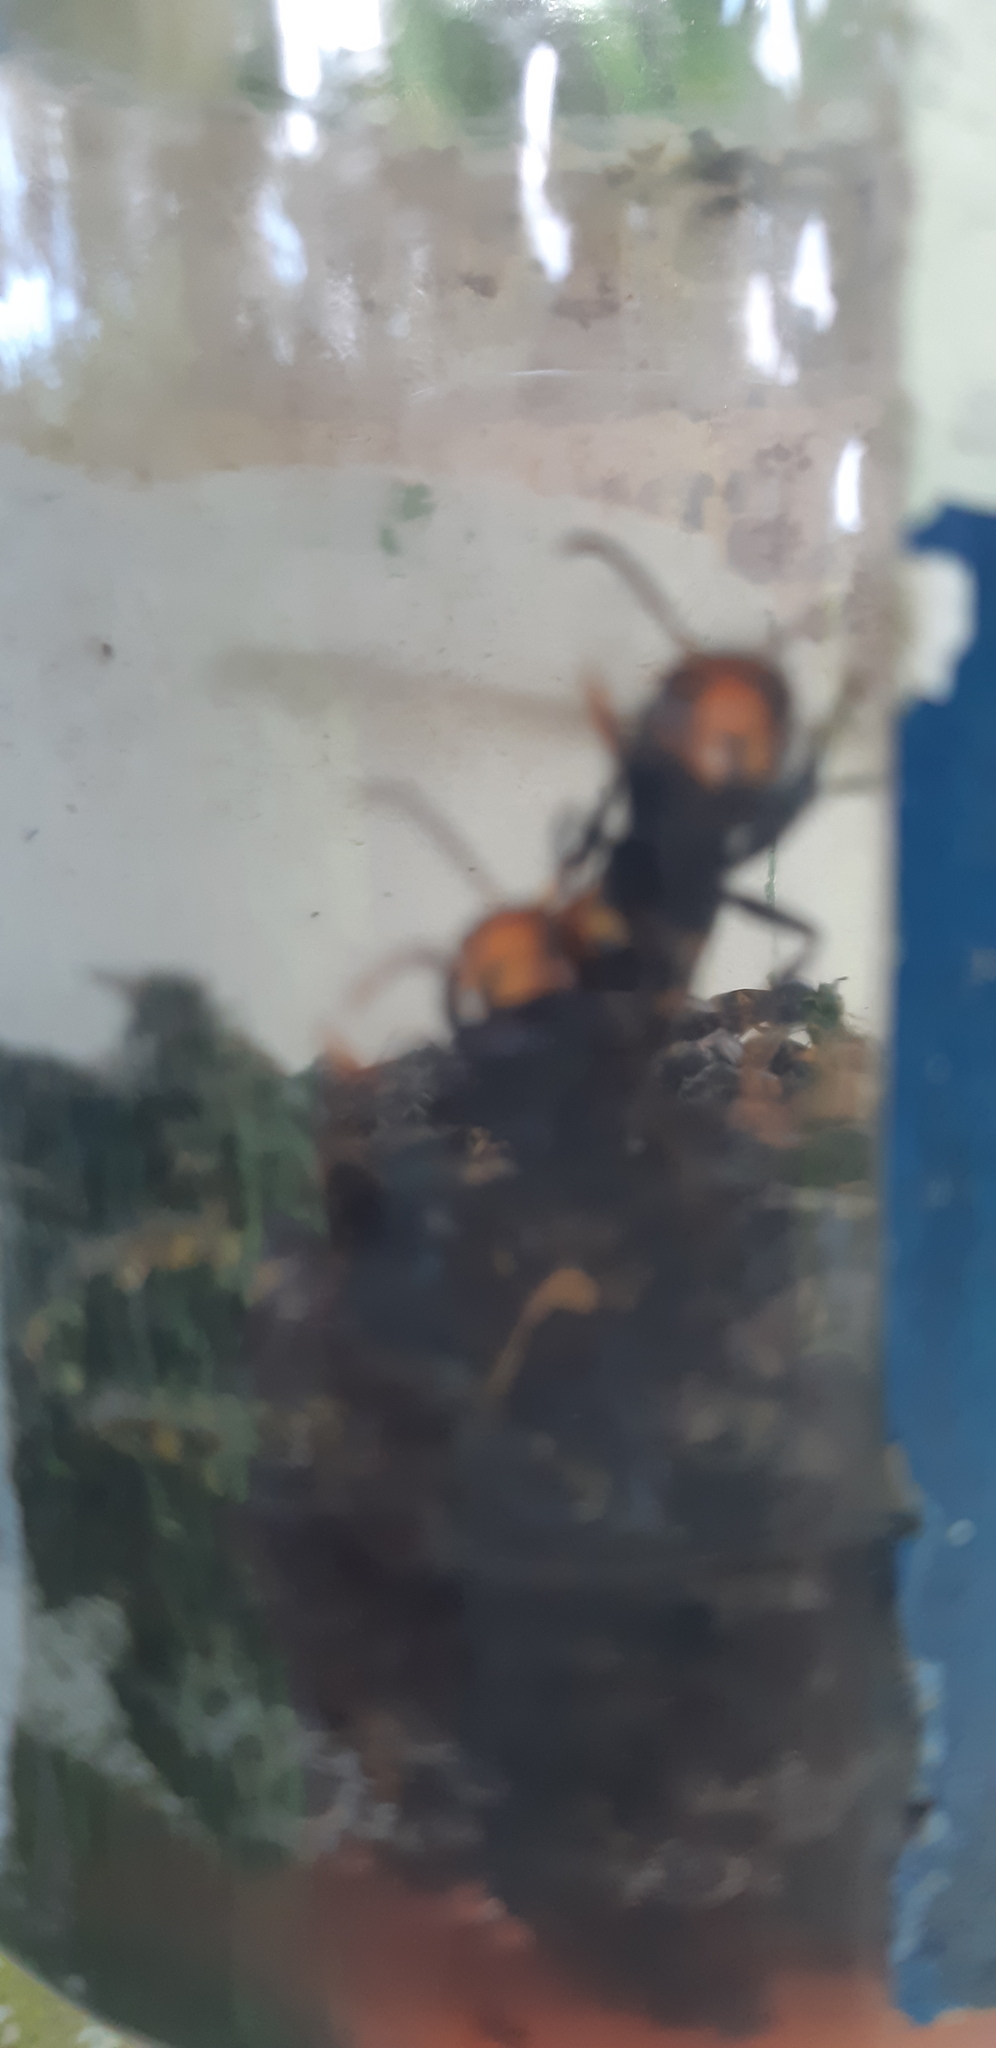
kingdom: Animalia
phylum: Arthropoda
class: Insecta
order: Hymenoptera
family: Vespidae
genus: Vespa
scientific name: Vespa velutina
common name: Asian hornet
